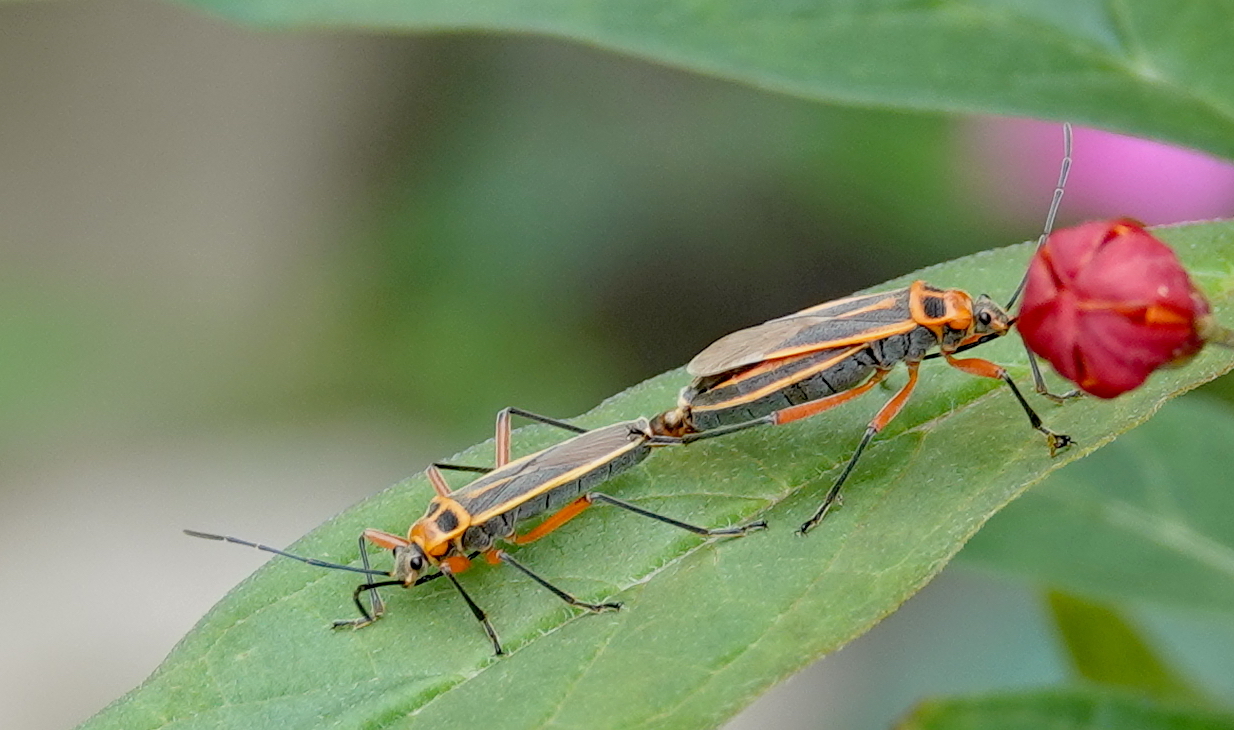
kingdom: Animalia
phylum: Arthropoda
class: Insecta
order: Hemiptera
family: Largidae
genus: Stenomacra
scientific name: Stenomacra marginella
